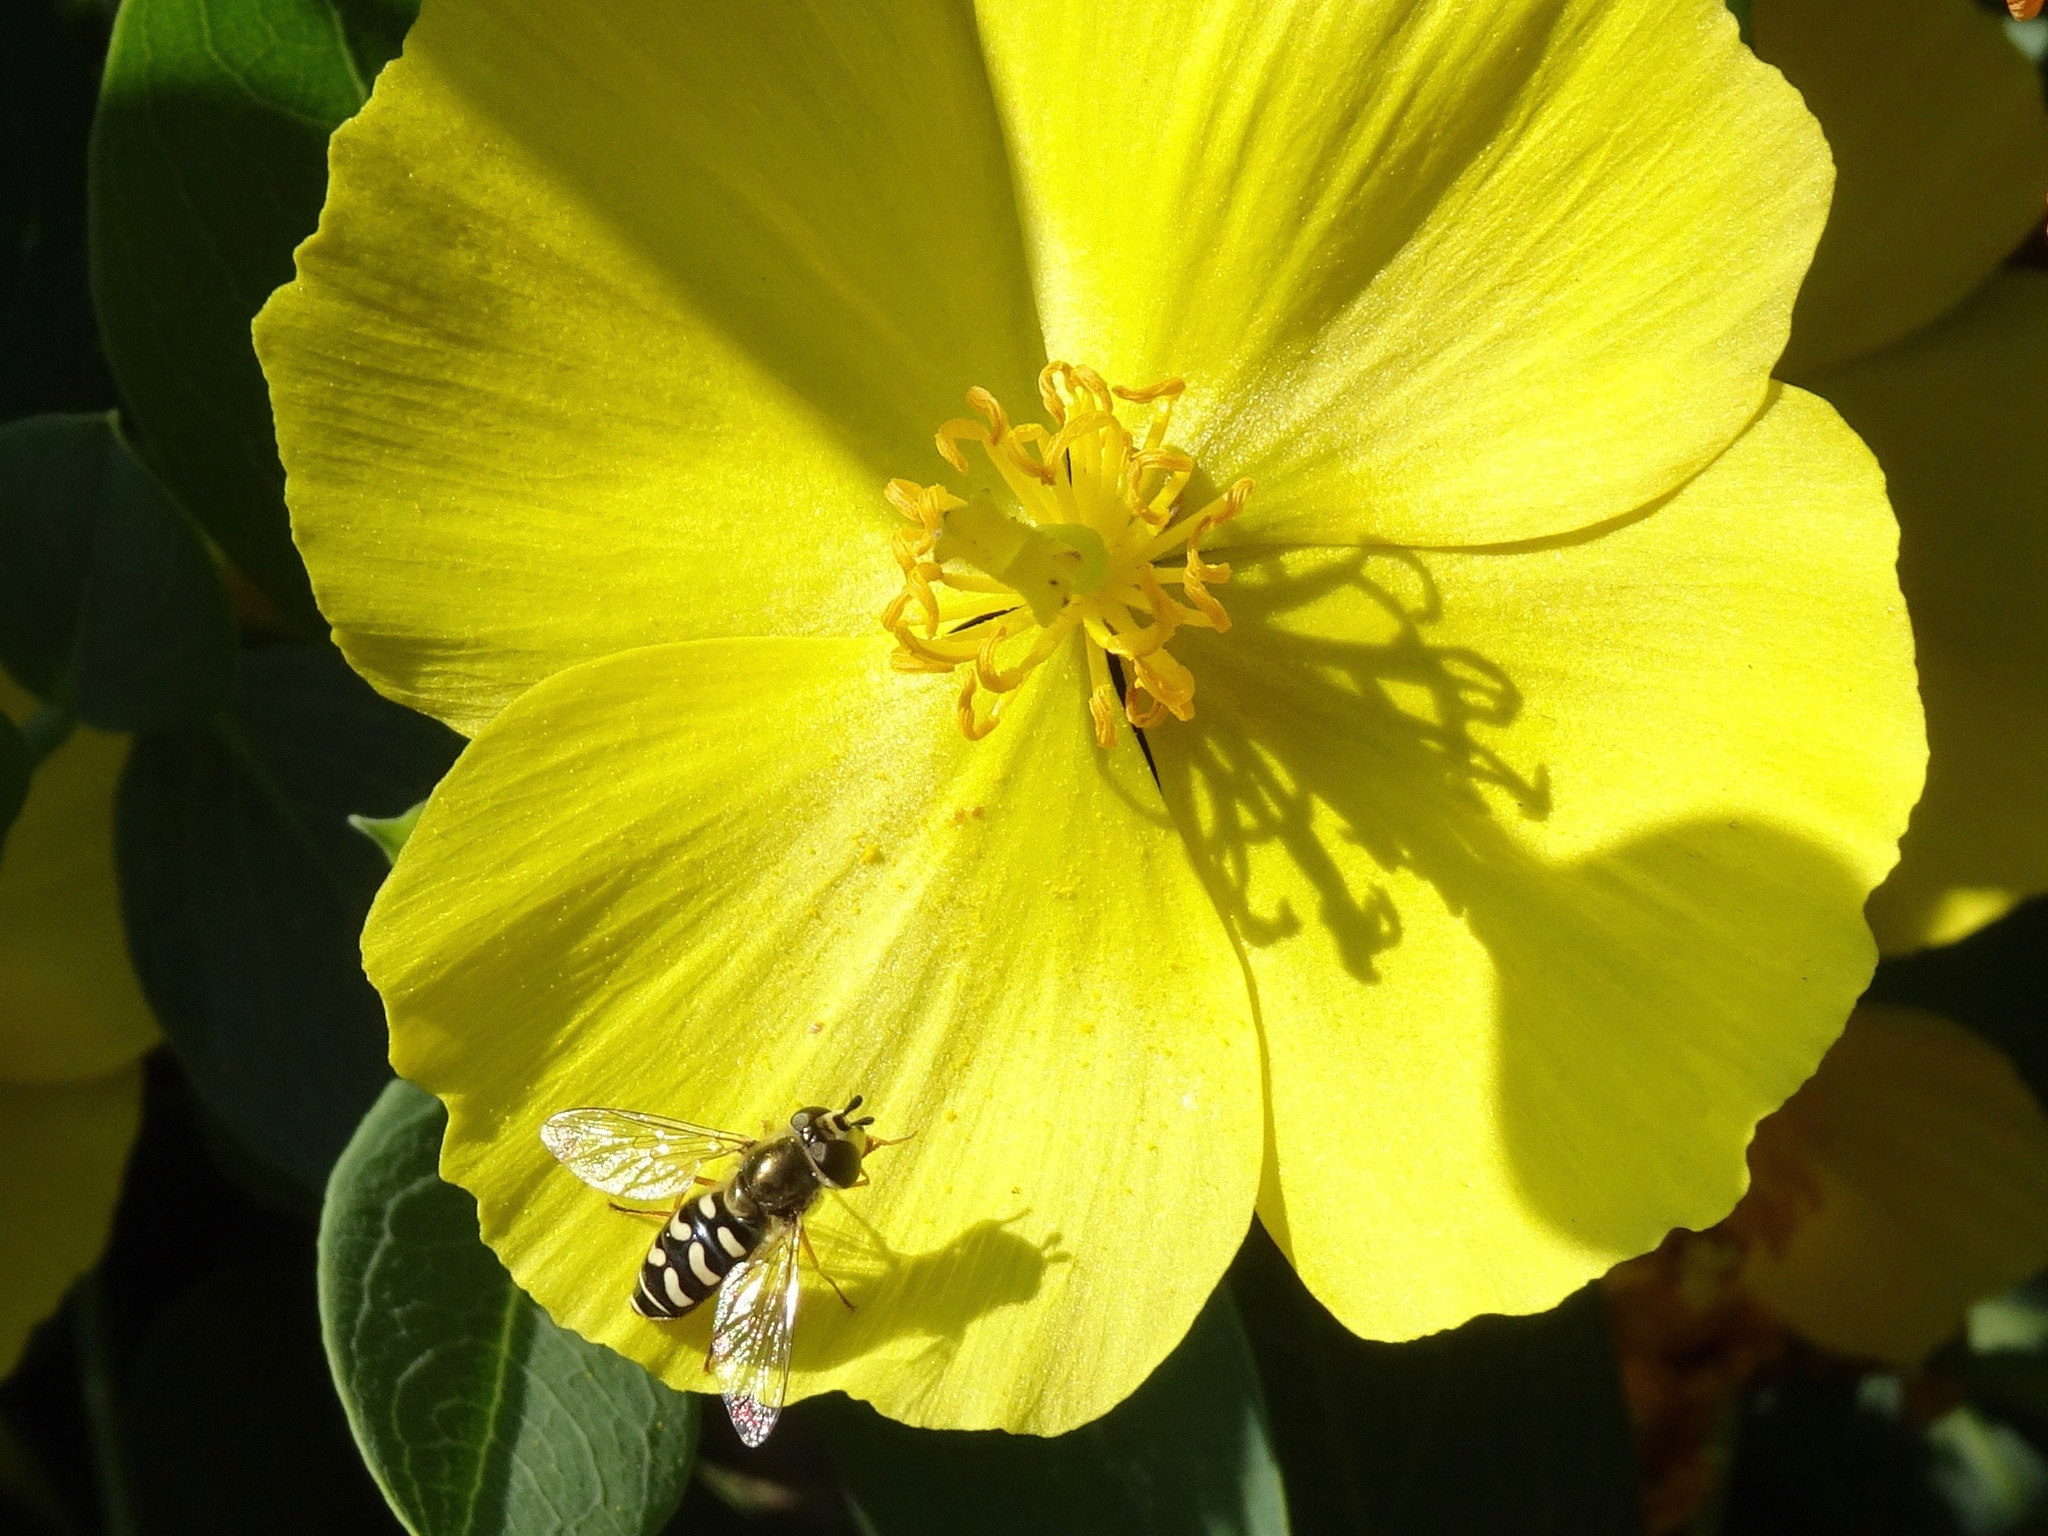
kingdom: Animalia
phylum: Arthropoda
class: Insecta
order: Diptera
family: Syrphidae
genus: Eupeodes
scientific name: Eupeodes volucris
